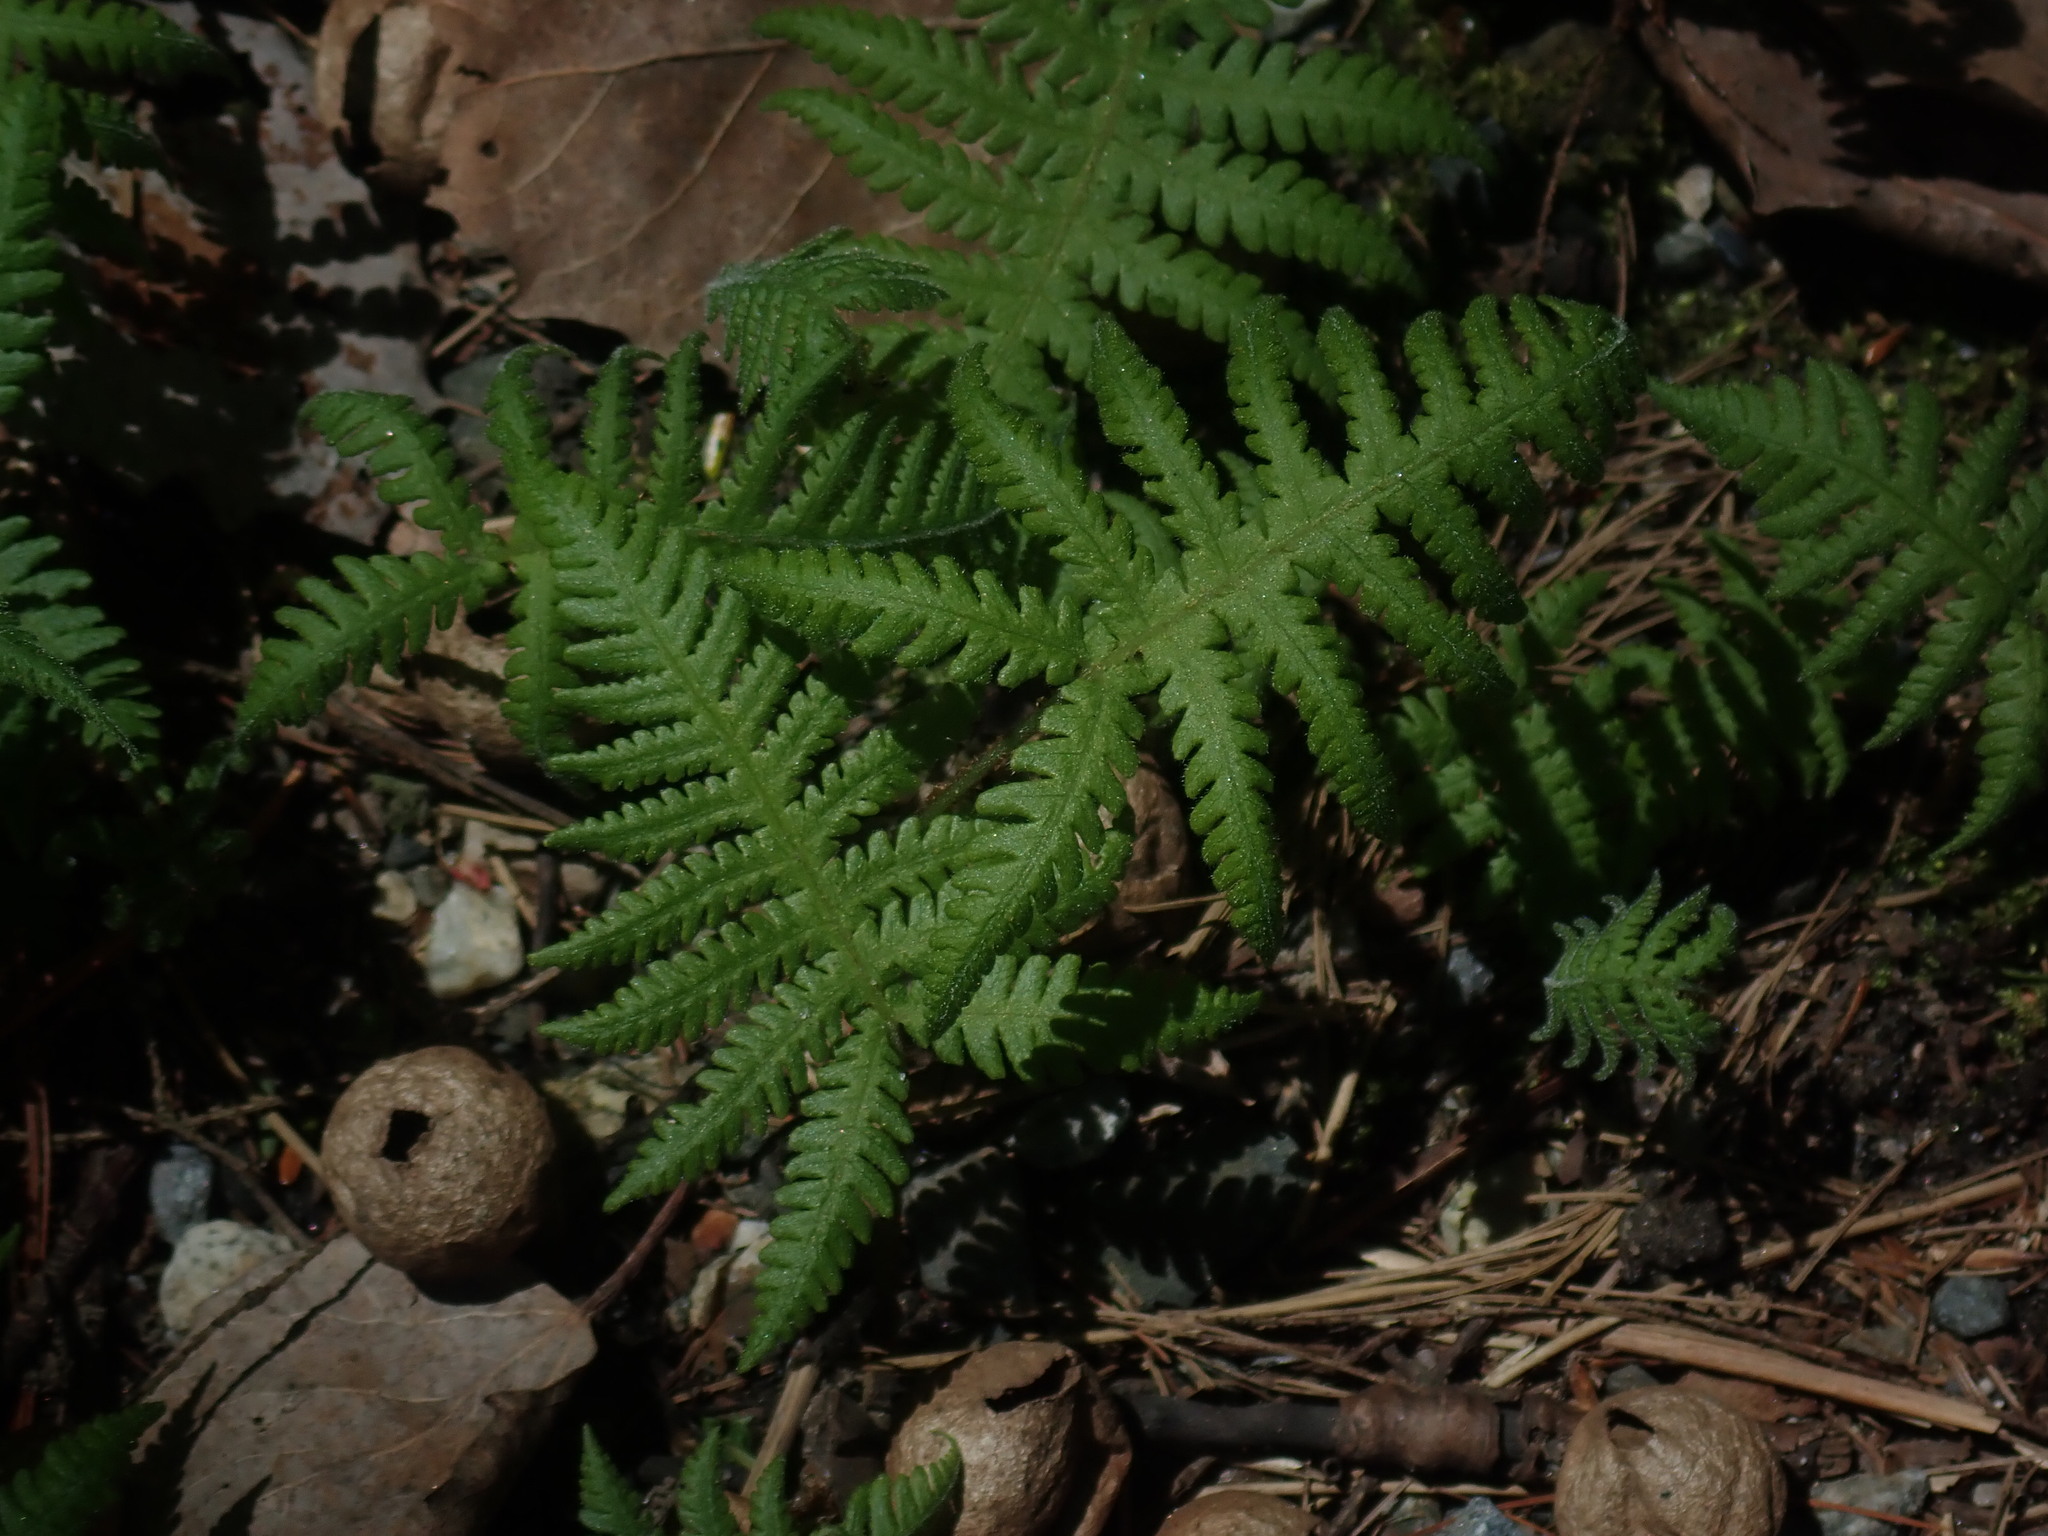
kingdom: Plantae
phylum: Tracheophyta
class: Polypodiopsida
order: Polypodiales
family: Thelypteridaceae
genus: Phegopteris
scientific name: Phegopteris connectilis
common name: Beech fern
